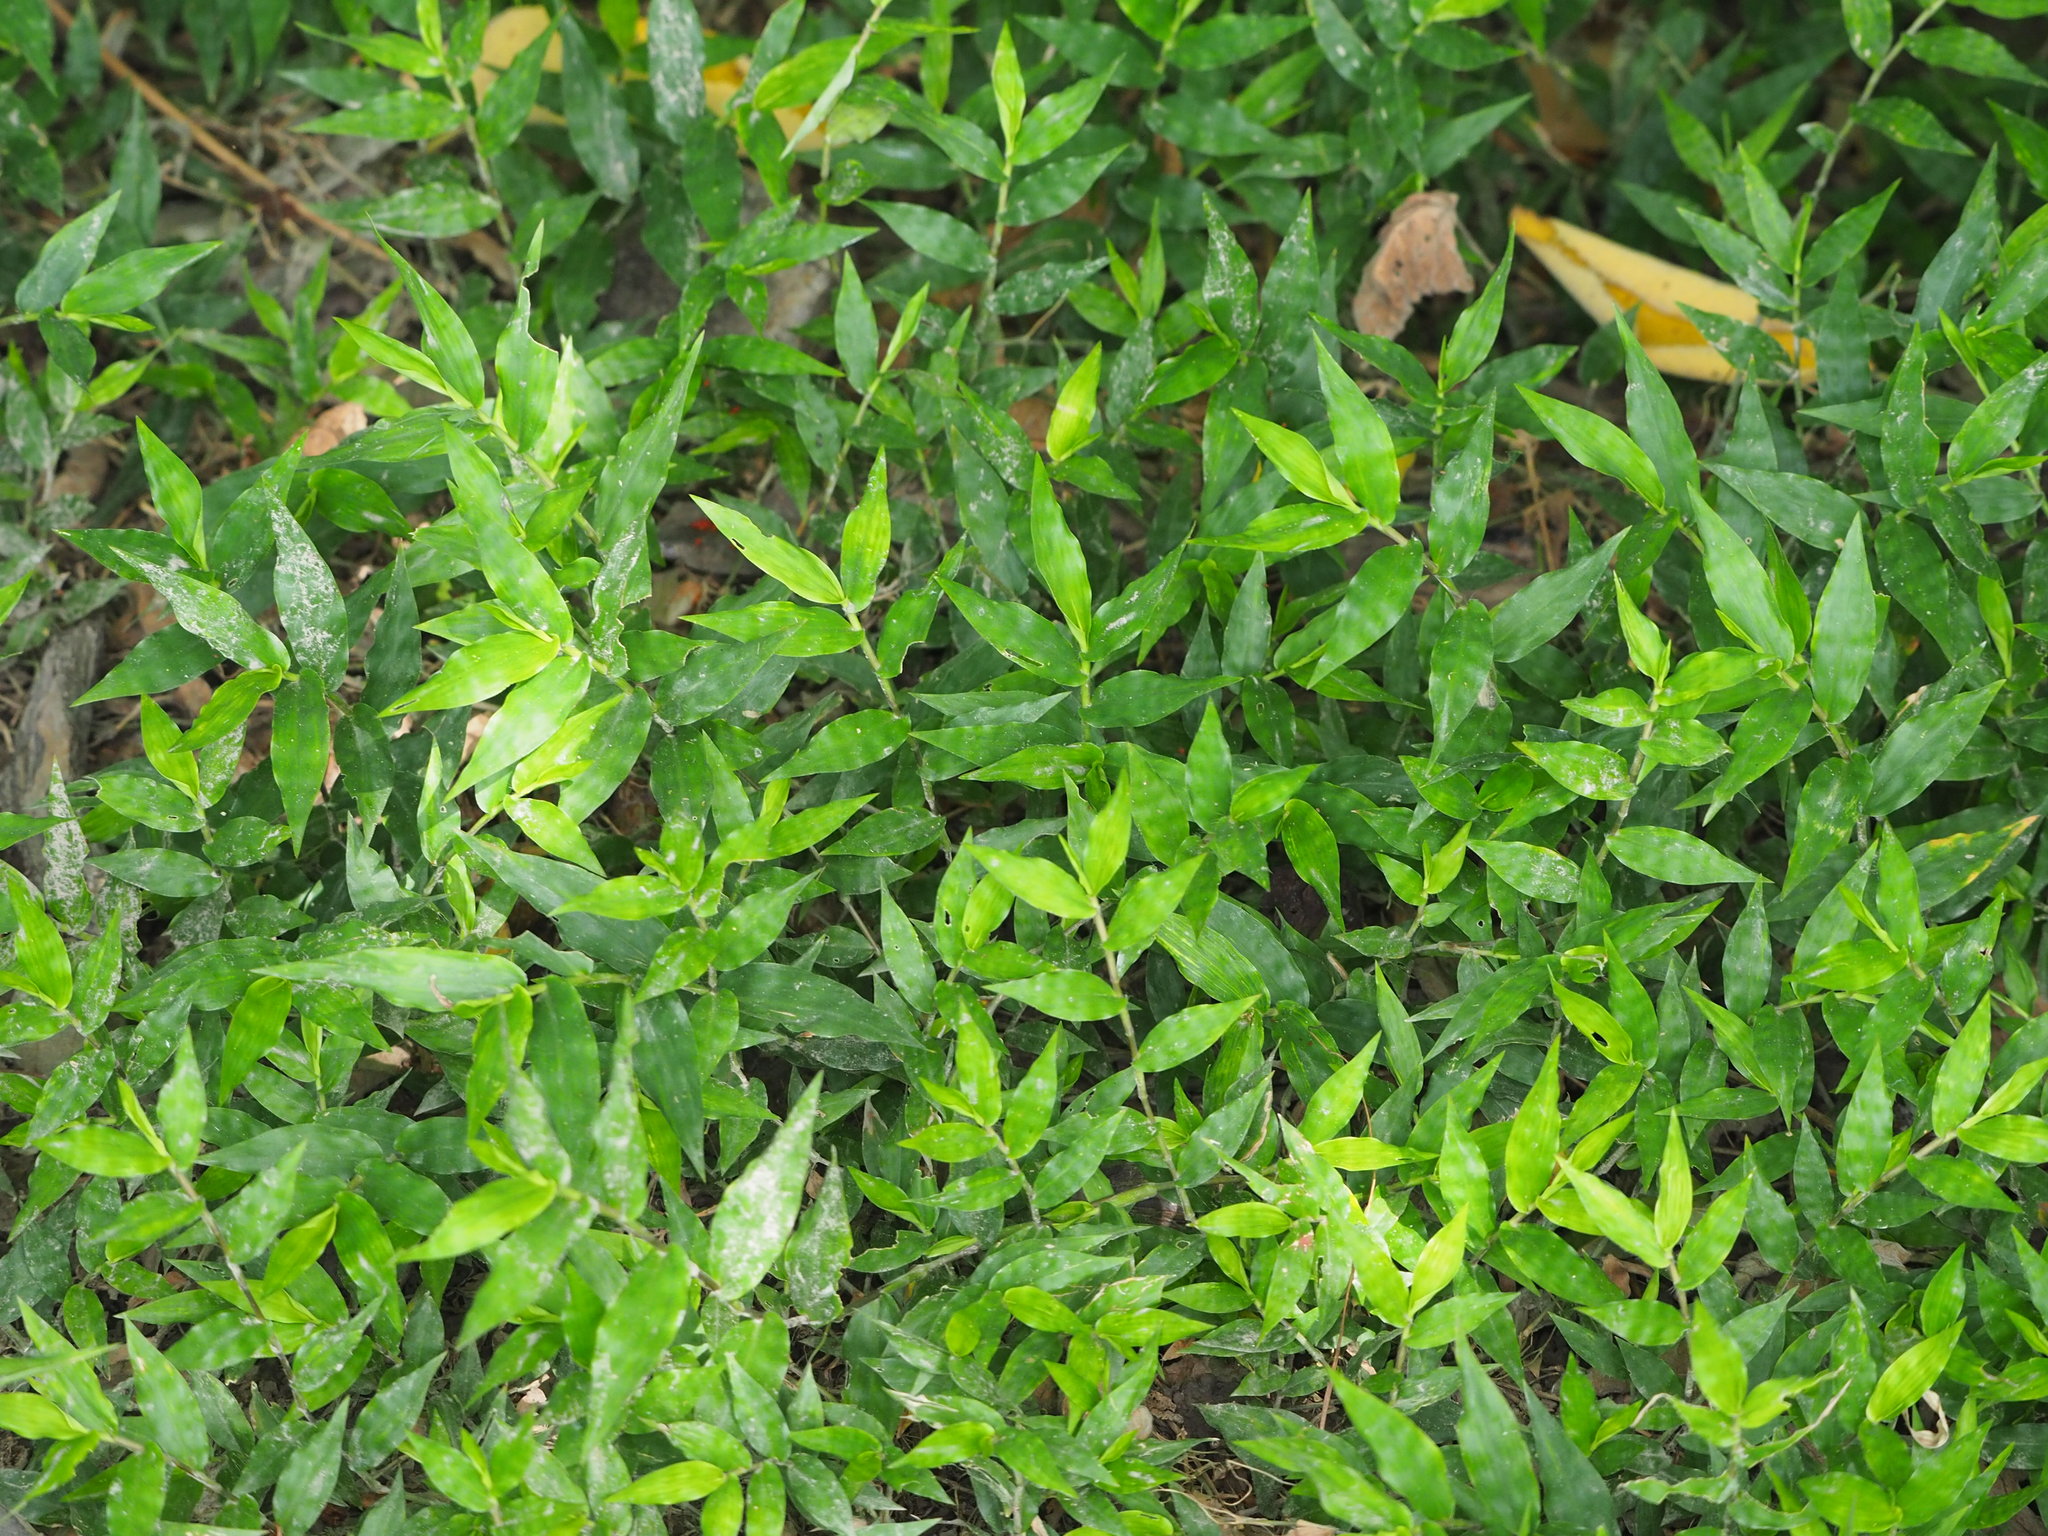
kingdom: Plantae
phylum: Tracheophyta
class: Liliopsida
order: Poales
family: Poaceae
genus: Oplismenus
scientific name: Oplismenus compositus
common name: Running mountain grass
